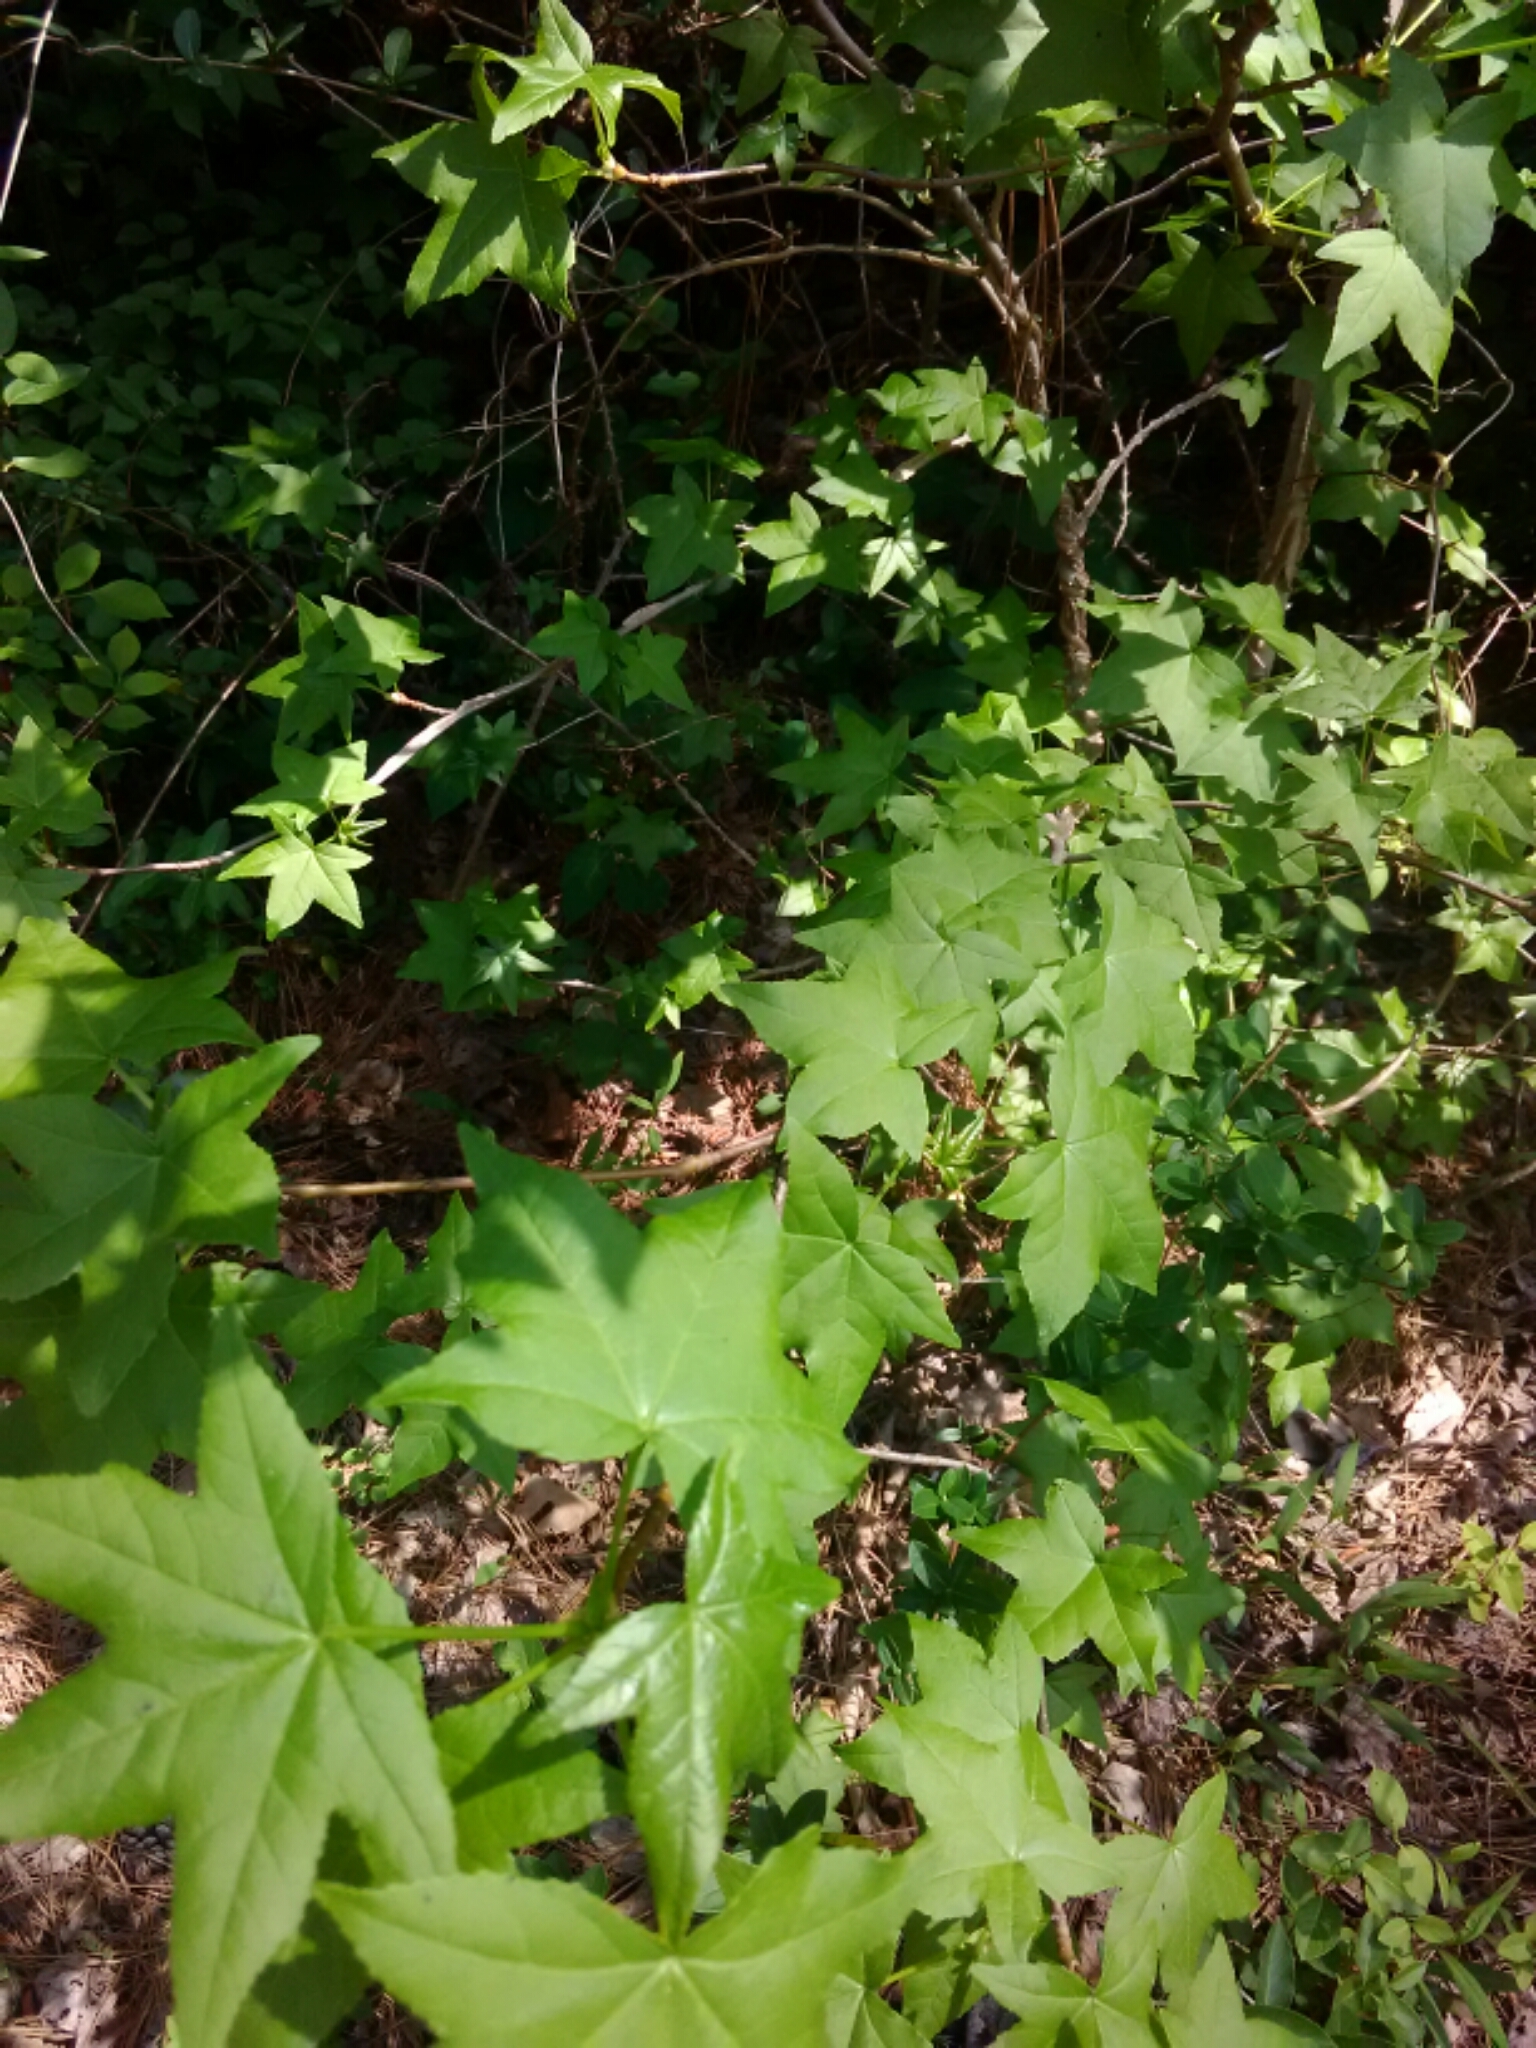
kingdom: Plantae
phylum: Tracheophyta
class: Magnoliopsida
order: Saxifragales
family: Altingiaceae
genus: Liquidambar
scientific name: Liquidambar styraciflua
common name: Sweet gum
